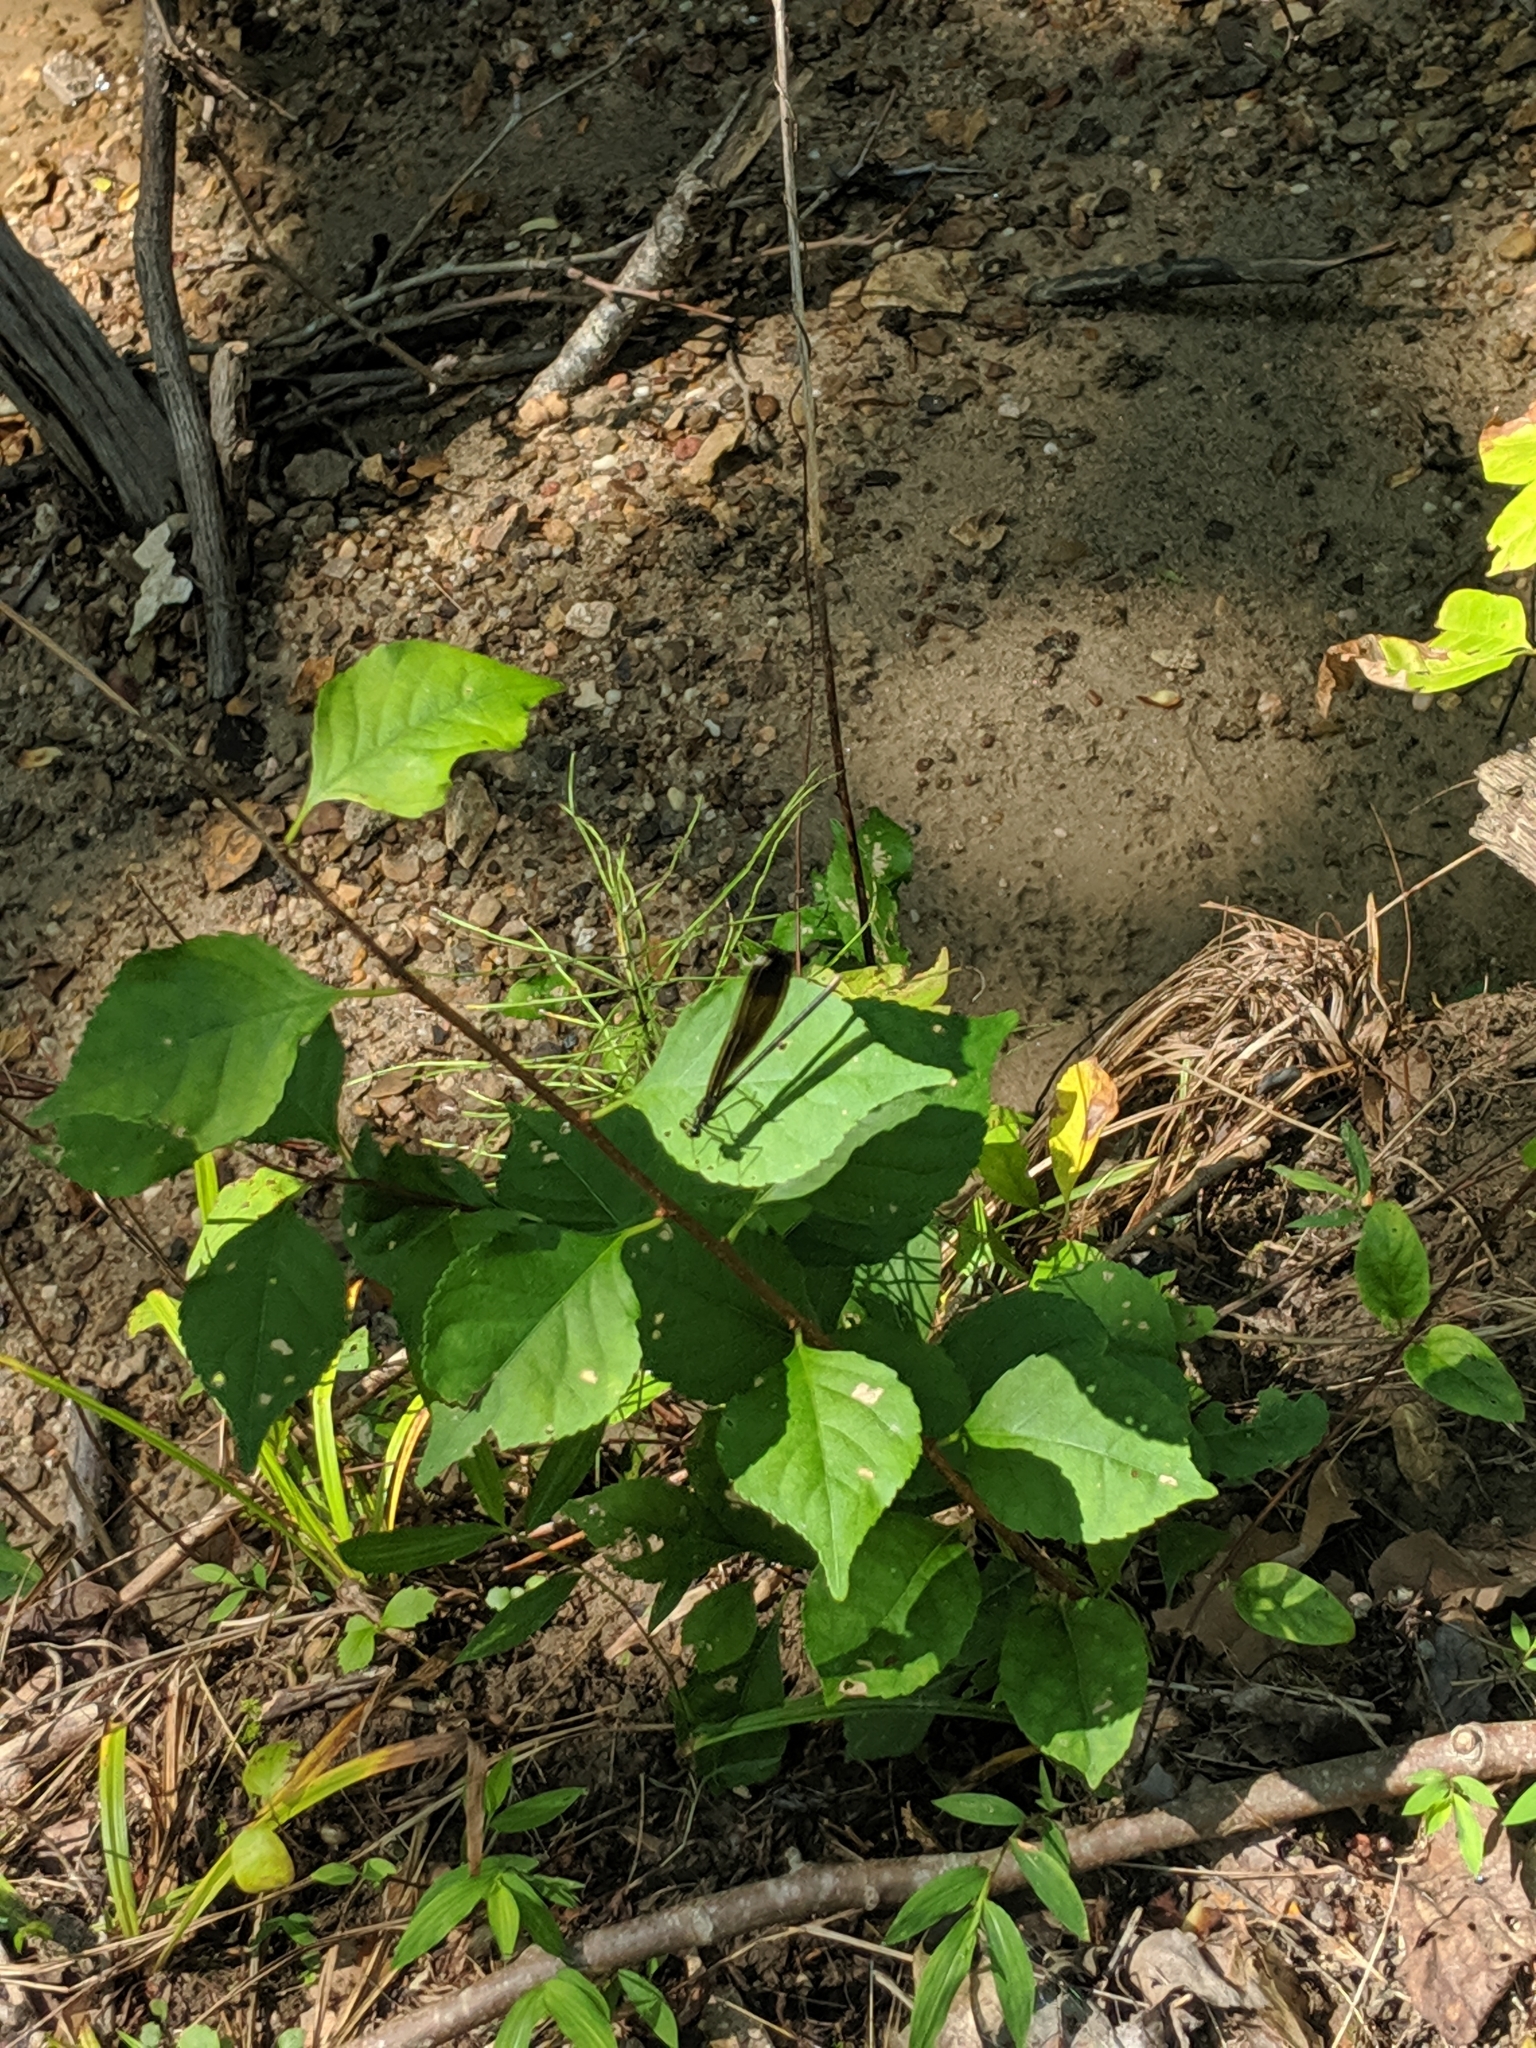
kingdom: Animalia
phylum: Arthropoda
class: Insecta
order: Odonata
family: Calopterygidae
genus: Calopteryx
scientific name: Calopteryx maculata
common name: Ebony jewelwing
